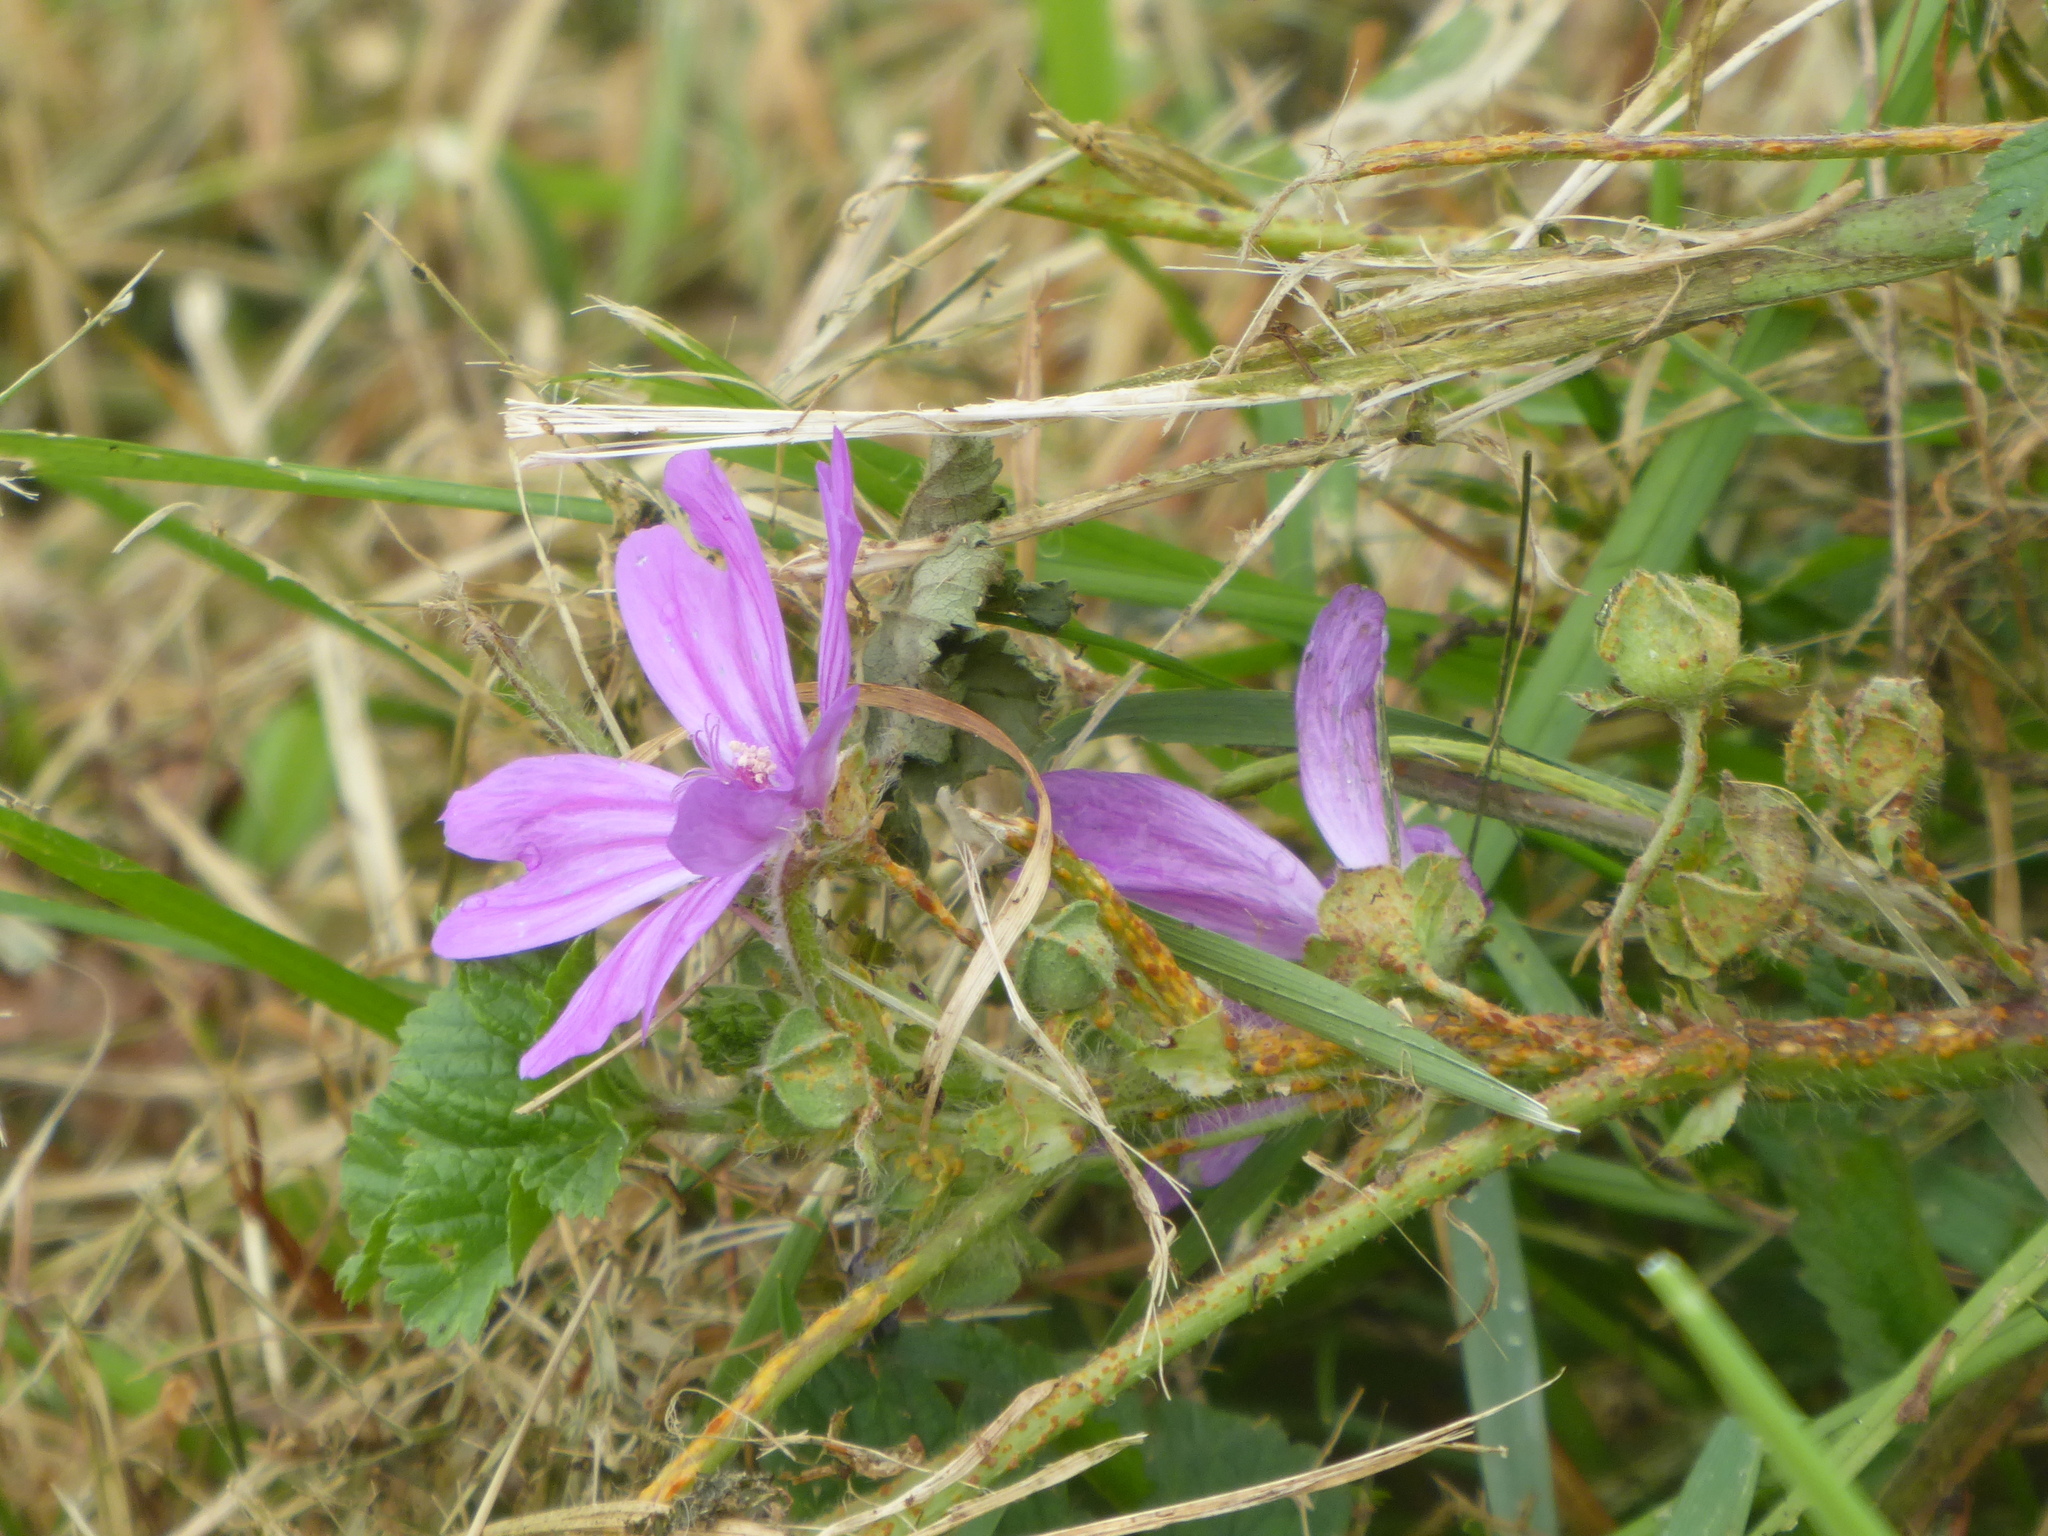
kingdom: Plantae
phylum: Tracheophyta
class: Magnoliopsida
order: Malvales
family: Malvaceae
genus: Malva
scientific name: Malva sylvestris
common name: Common mallow
